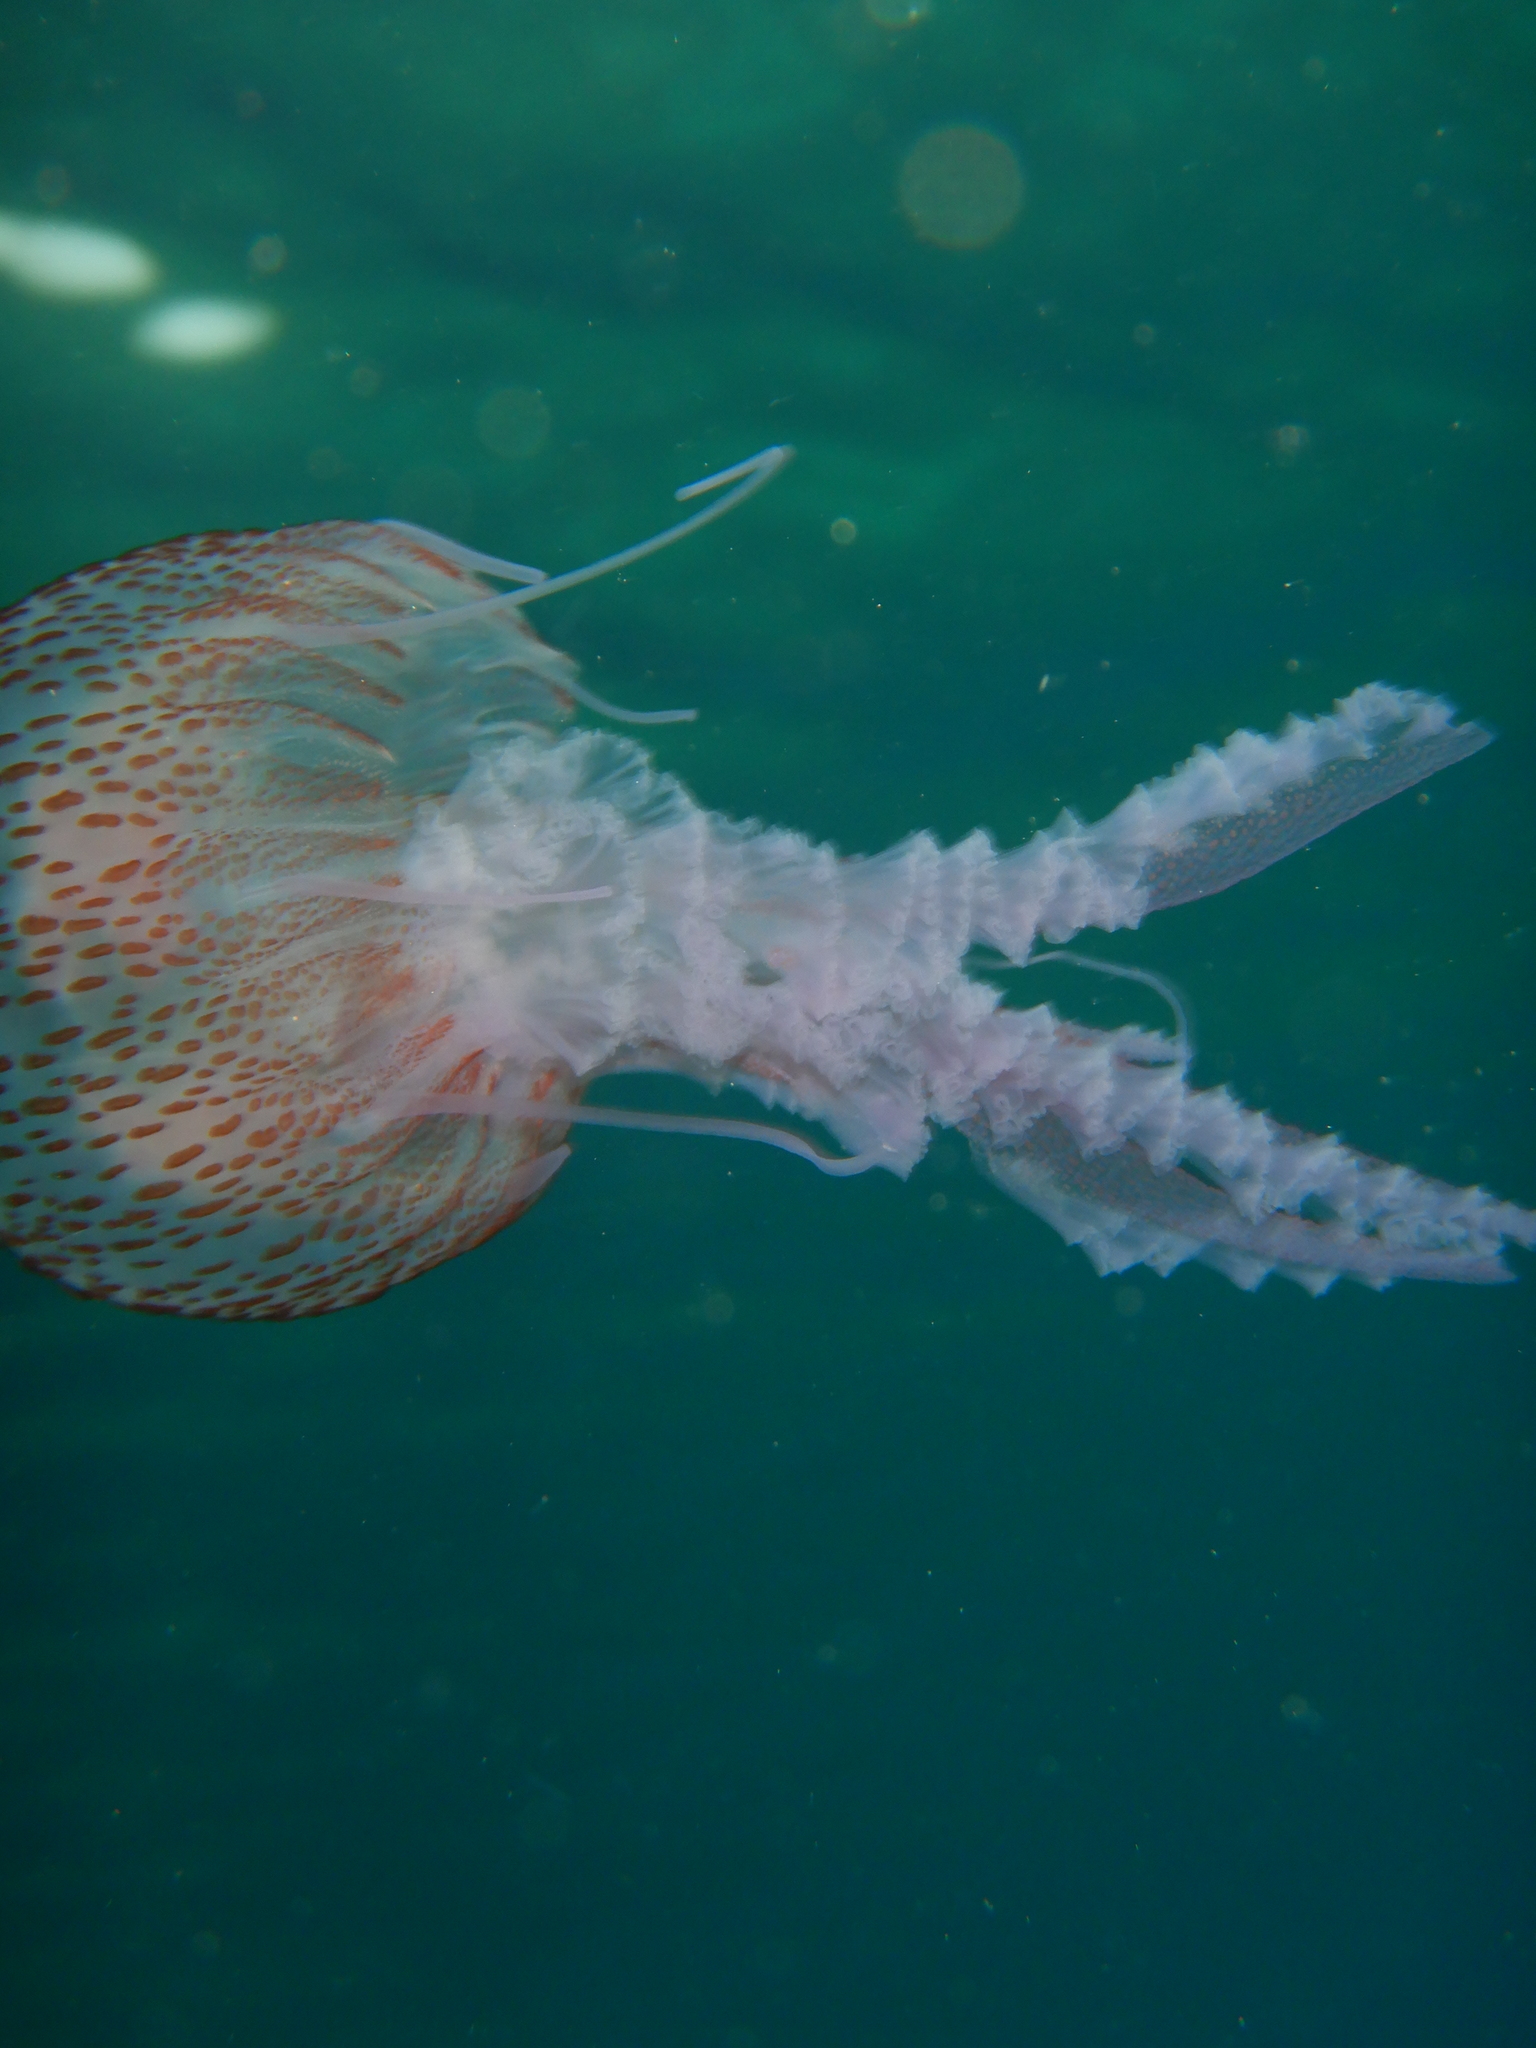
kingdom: Animalia
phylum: Cnidaria
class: Scyphozoa
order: Semaeostomeae
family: Pelagiidae
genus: Pelagia
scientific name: Pelagia noctiluca
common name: Mauve stinger
